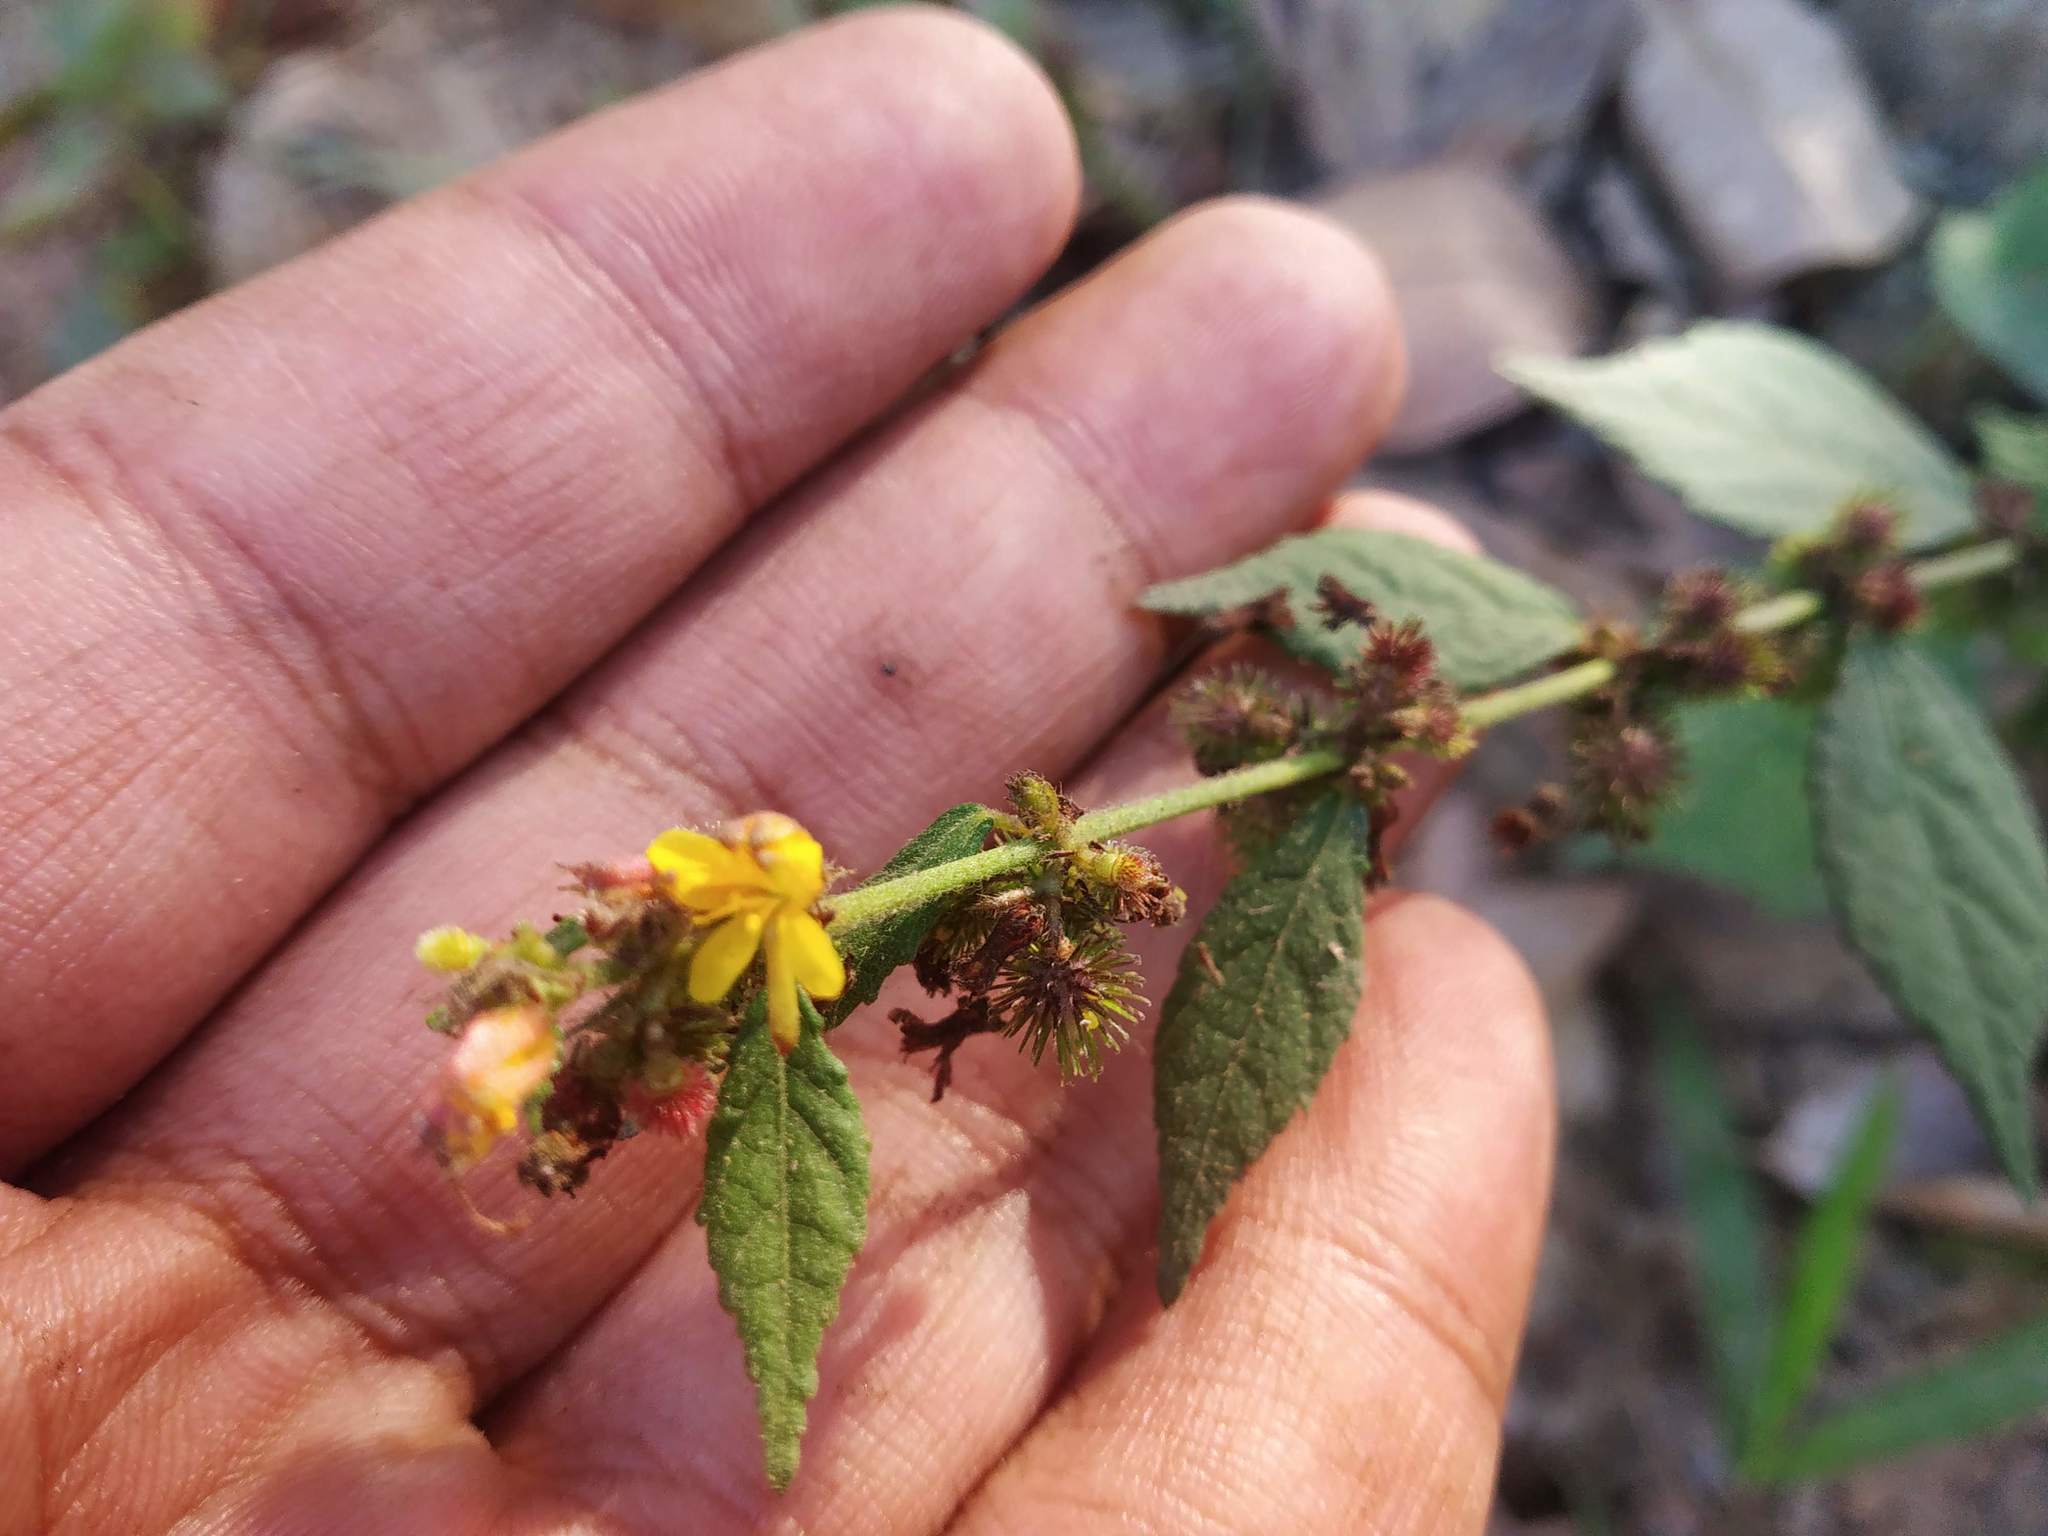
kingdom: Plantae
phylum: Tracheophyta
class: Magnoliopsida
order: Malvales
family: Malvaceae
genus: Triumfetta
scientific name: Triumfetta rhomboidea
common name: Diamond burbark
